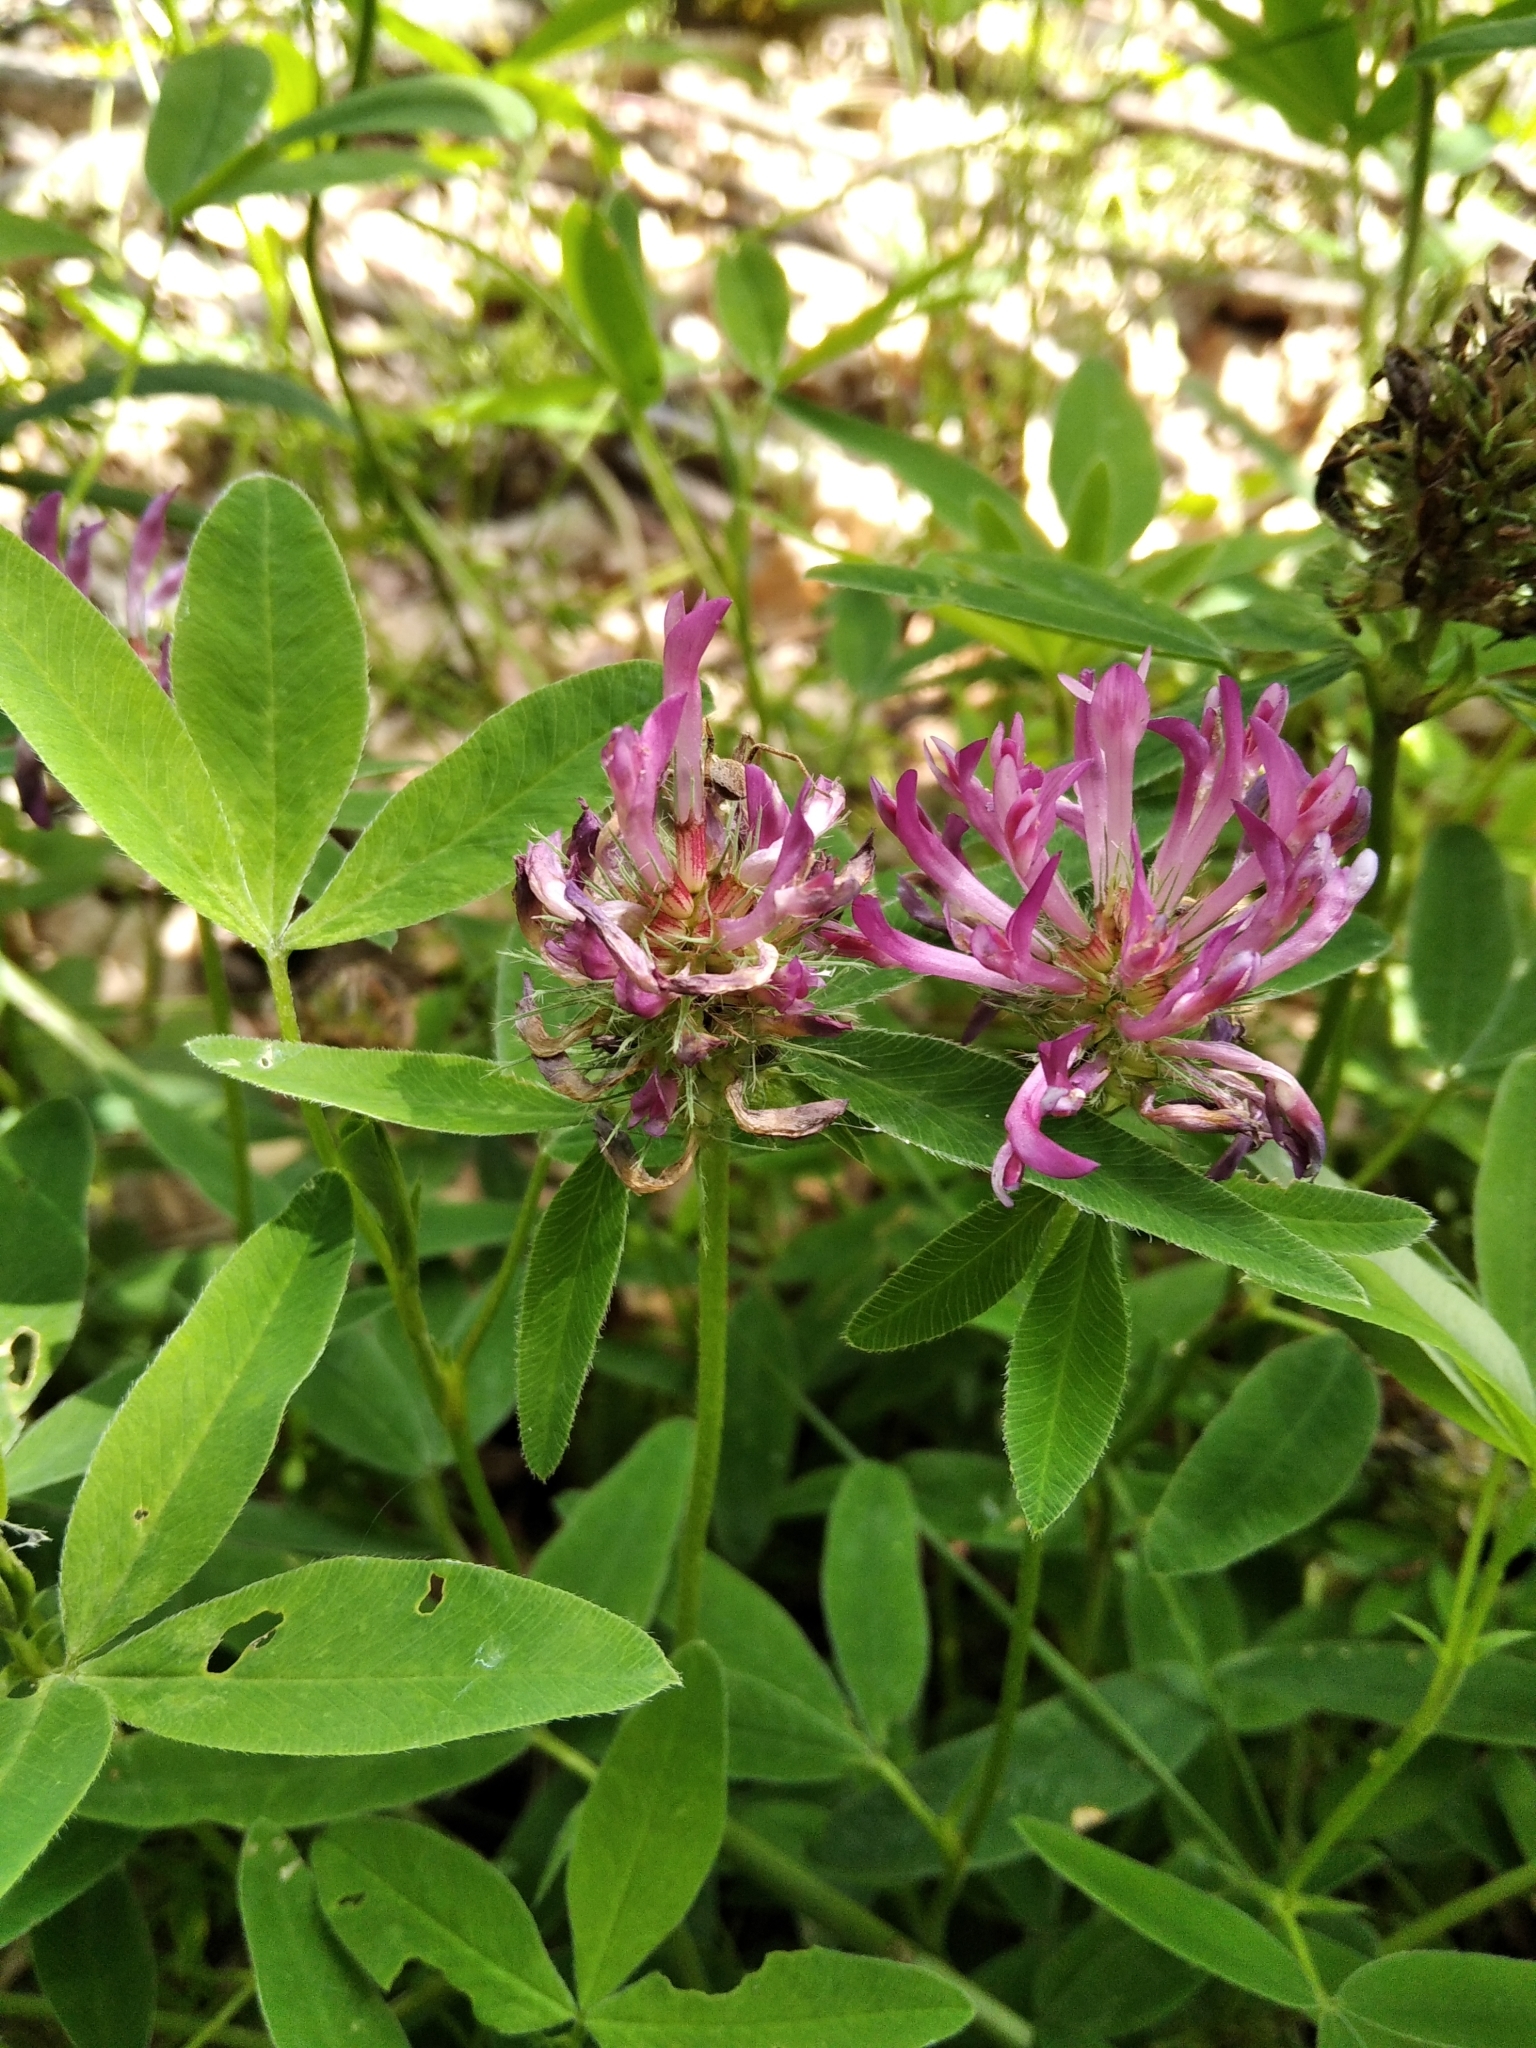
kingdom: Plantae
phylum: Tracheophyta
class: Magnoliopsida
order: Fabales
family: Fabaceae
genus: Trifolium
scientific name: Trifolium medium
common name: Zigzag clover
